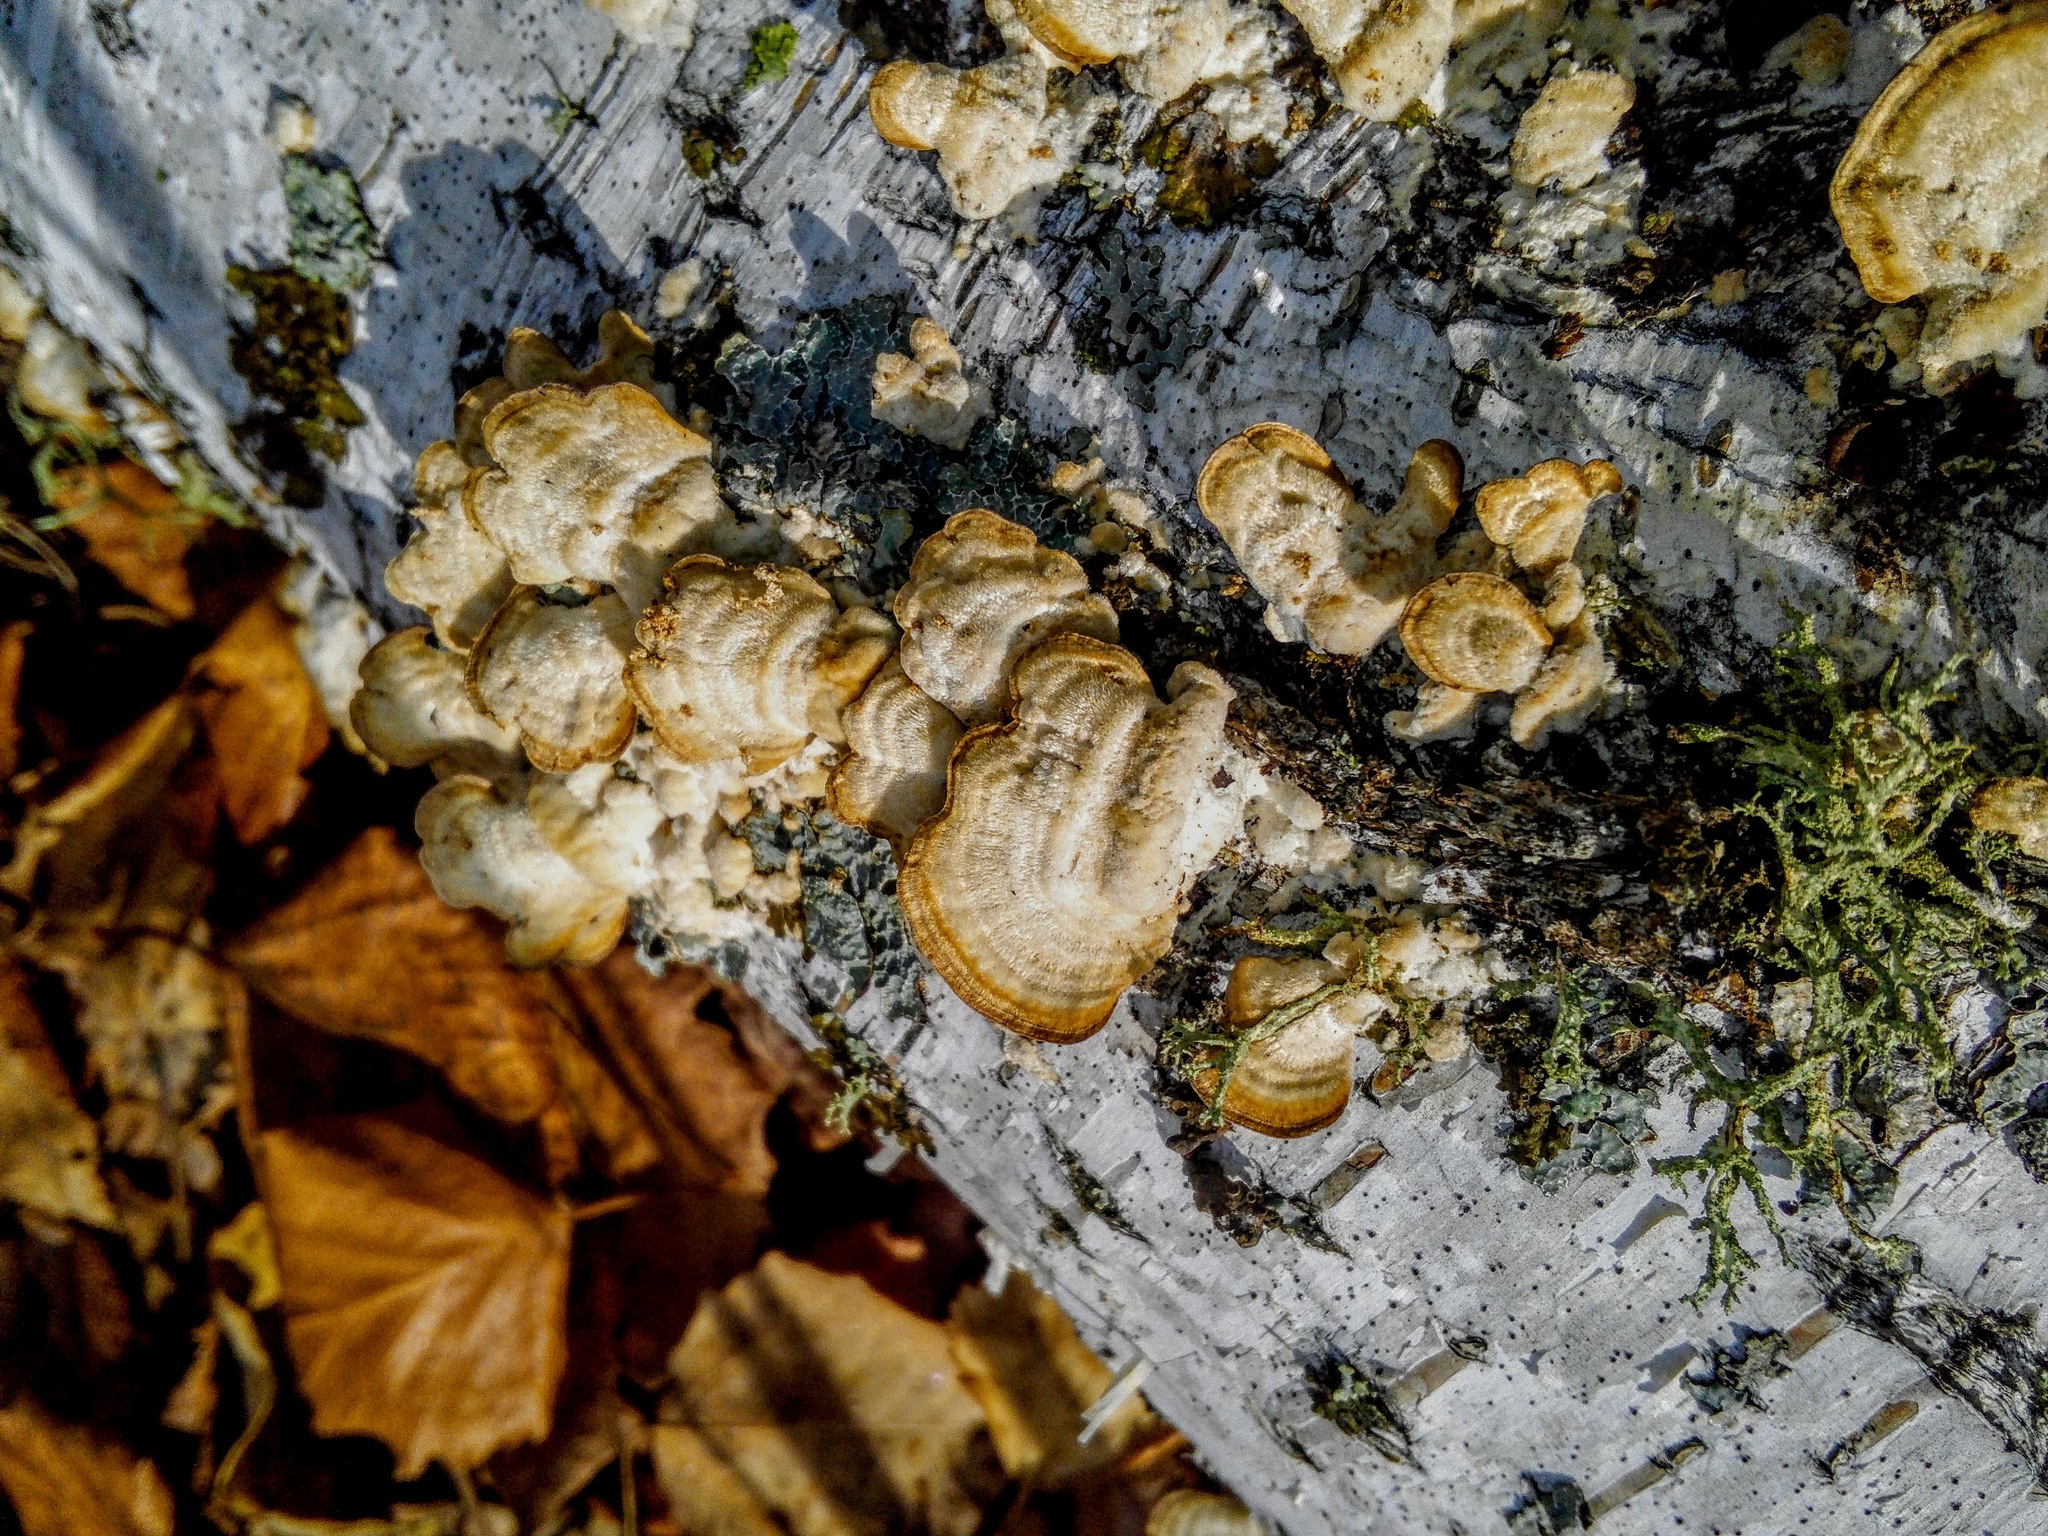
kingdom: Fungi
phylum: Basidiomycota
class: Agaricomycetes
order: Polyporales
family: Polyporaceae
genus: Trametes
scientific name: Trametes ochracea
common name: Ochre bracket
